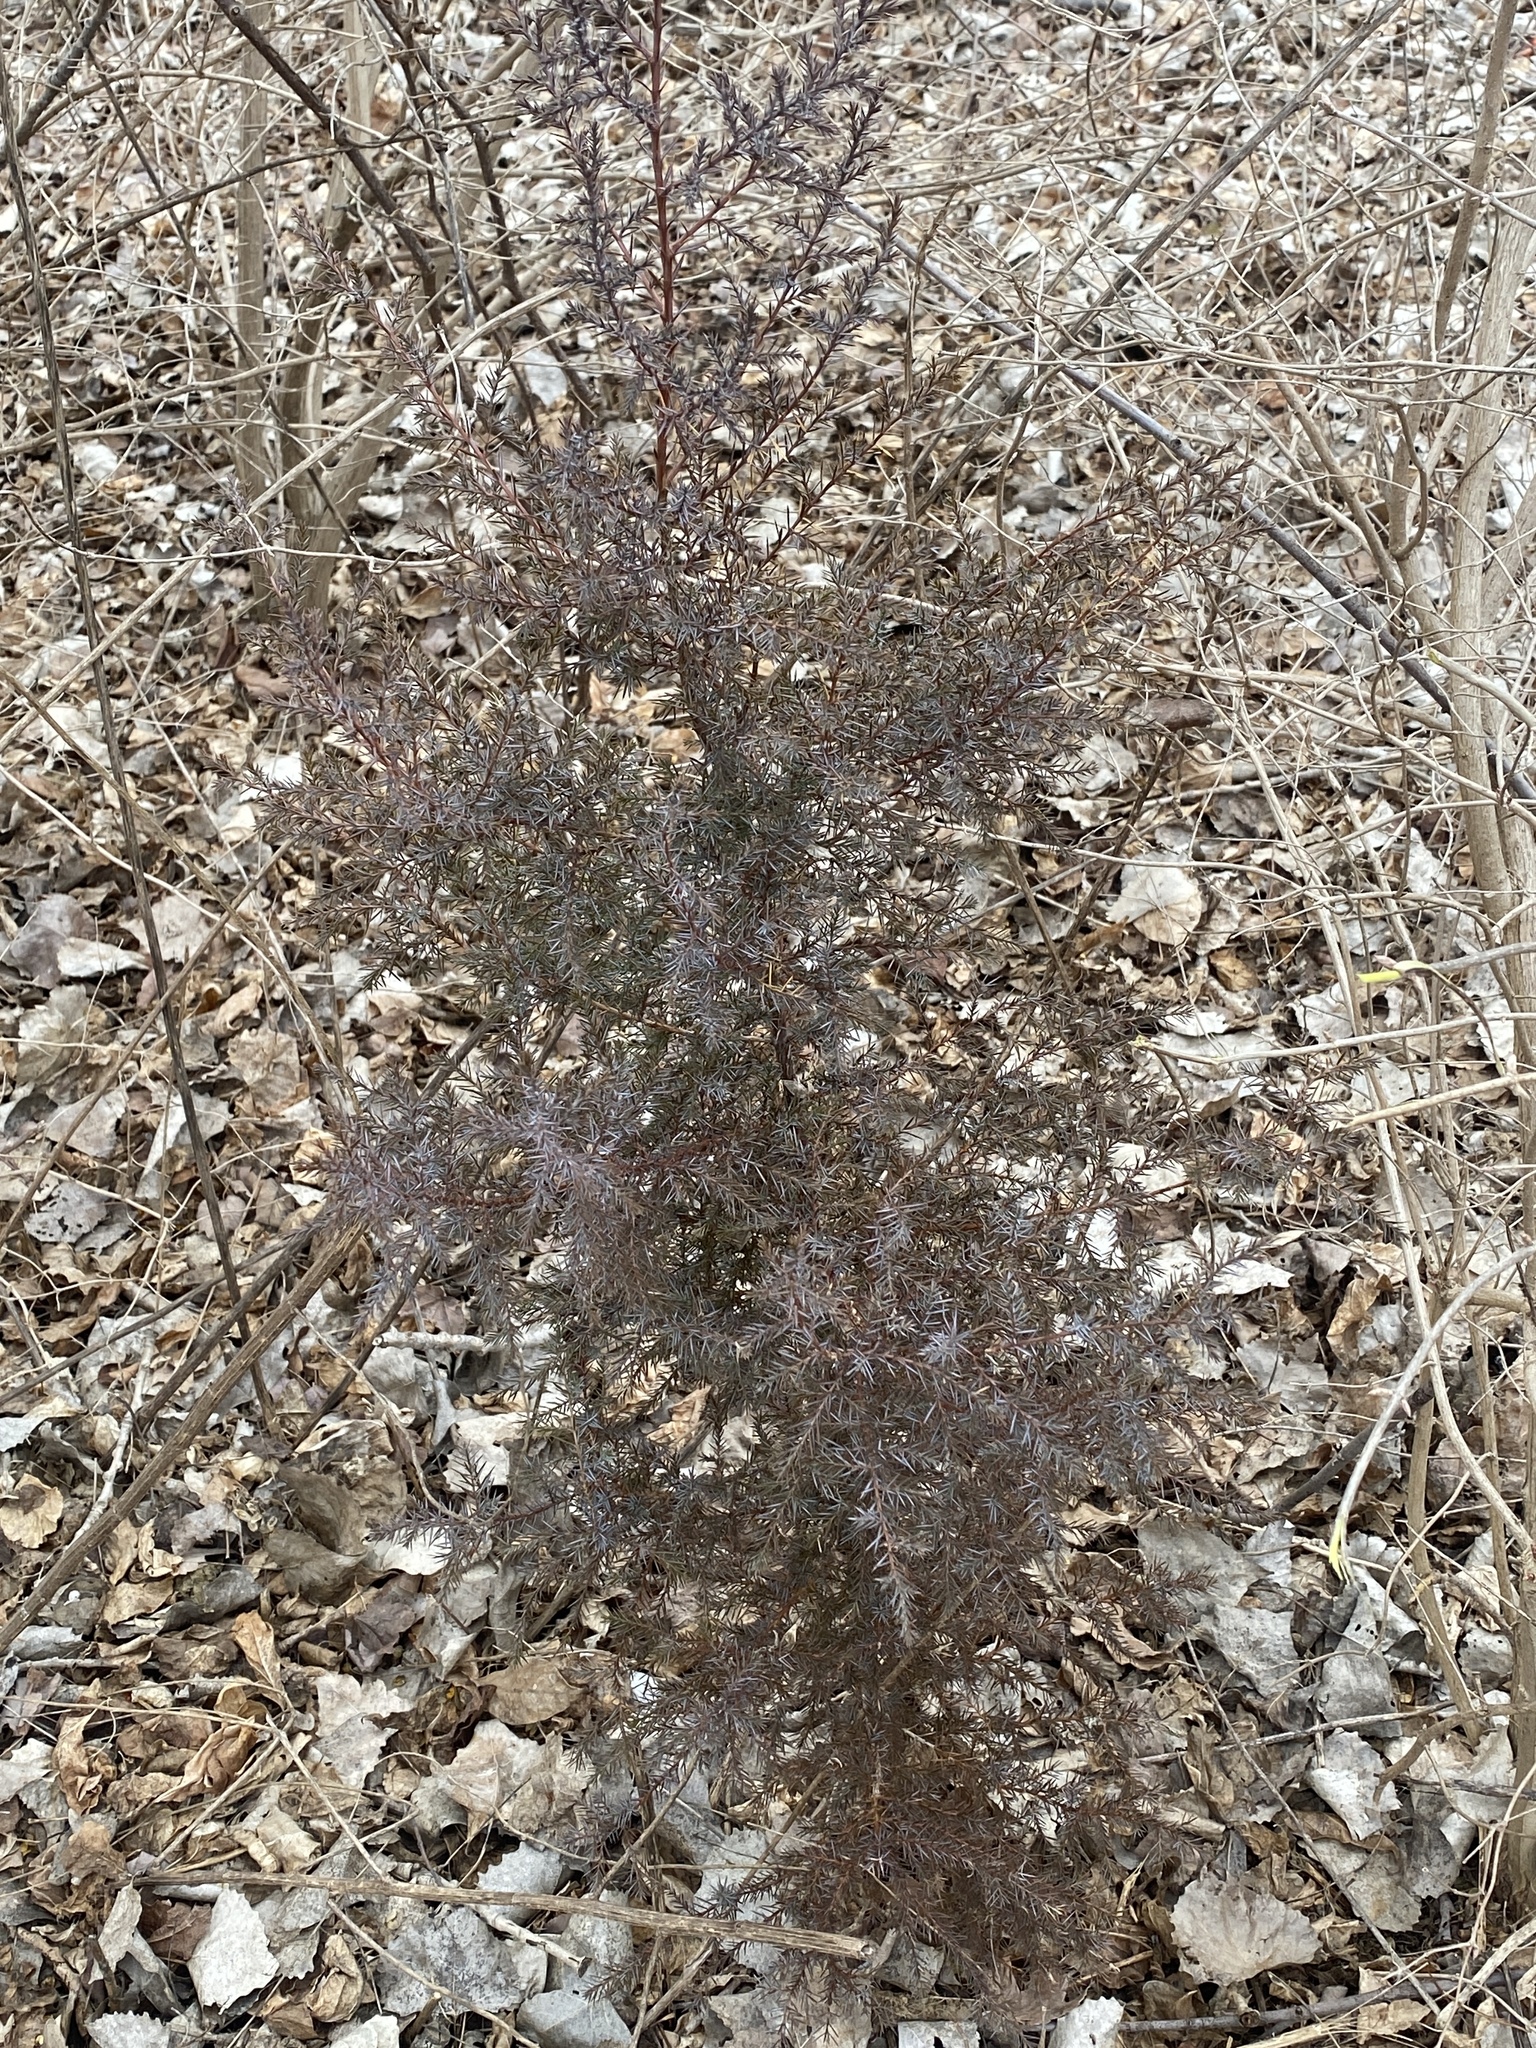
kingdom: Plantae
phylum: Tracheophyta
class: Pinopsida
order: Pinales
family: Cupressaceae
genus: Juniperus
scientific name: Juniperus virginiana
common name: Red juniper
